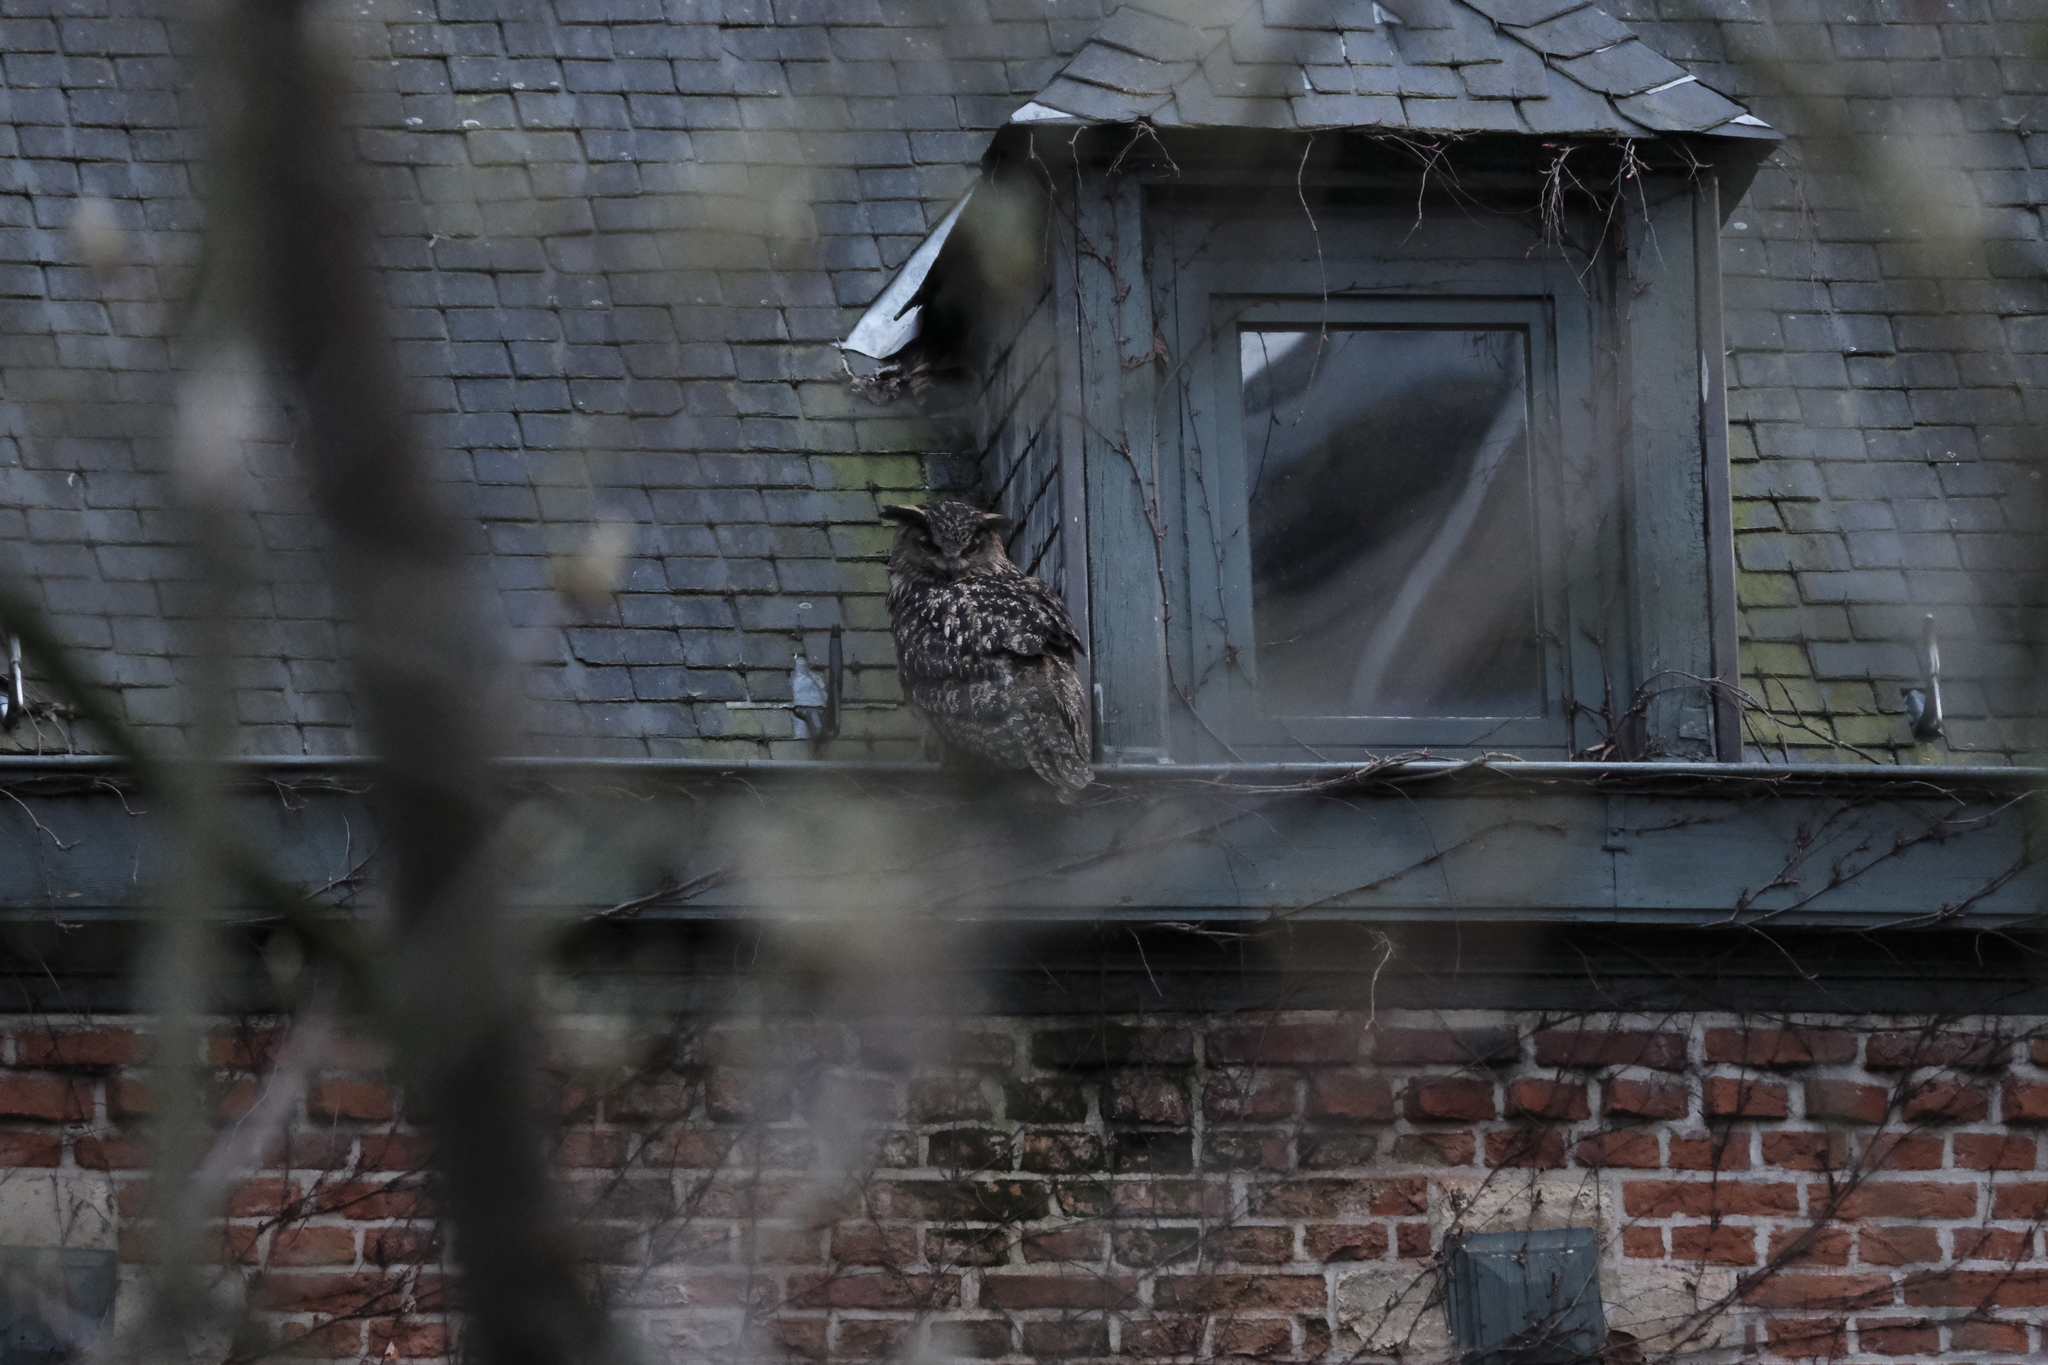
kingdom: Animalia
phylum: Chordata
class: Aves
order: Strigiformes
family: Strigidae
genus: Bubo
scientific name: Bubo bubo
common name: Eurasian eagle-owl
